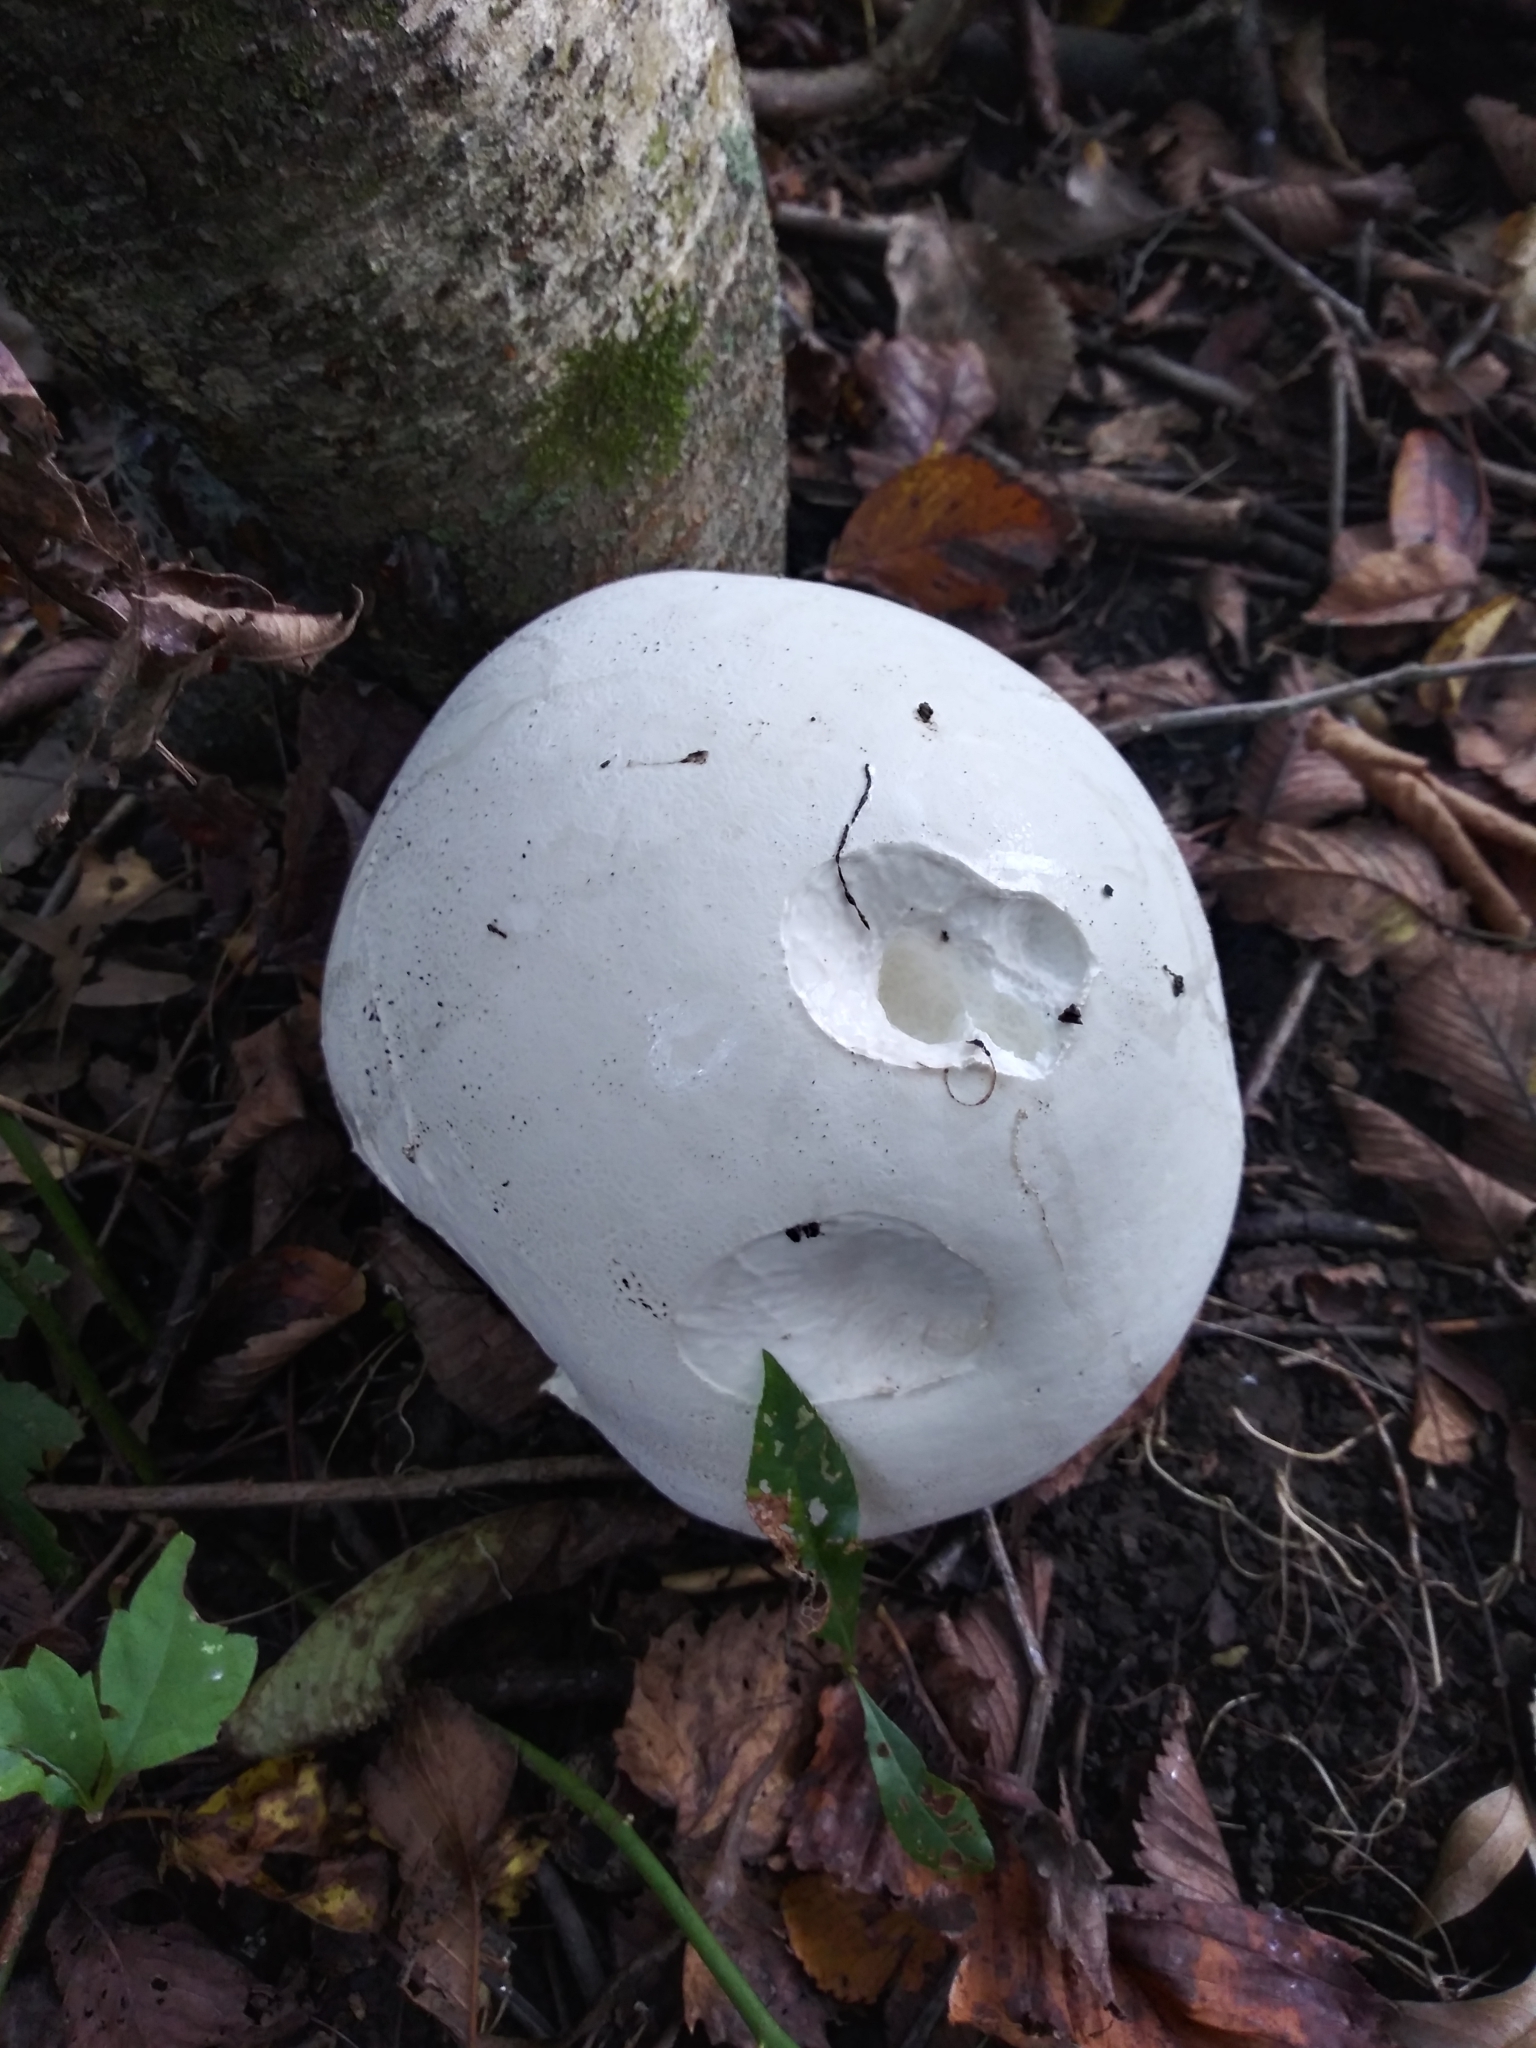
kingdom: Fungi
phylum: Basidiomycota
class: Agaricomycetes
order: Agaricales
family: Lycoperdaceae
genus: Calvatia
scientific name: Calvatia gigantea
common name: Giant puffball
